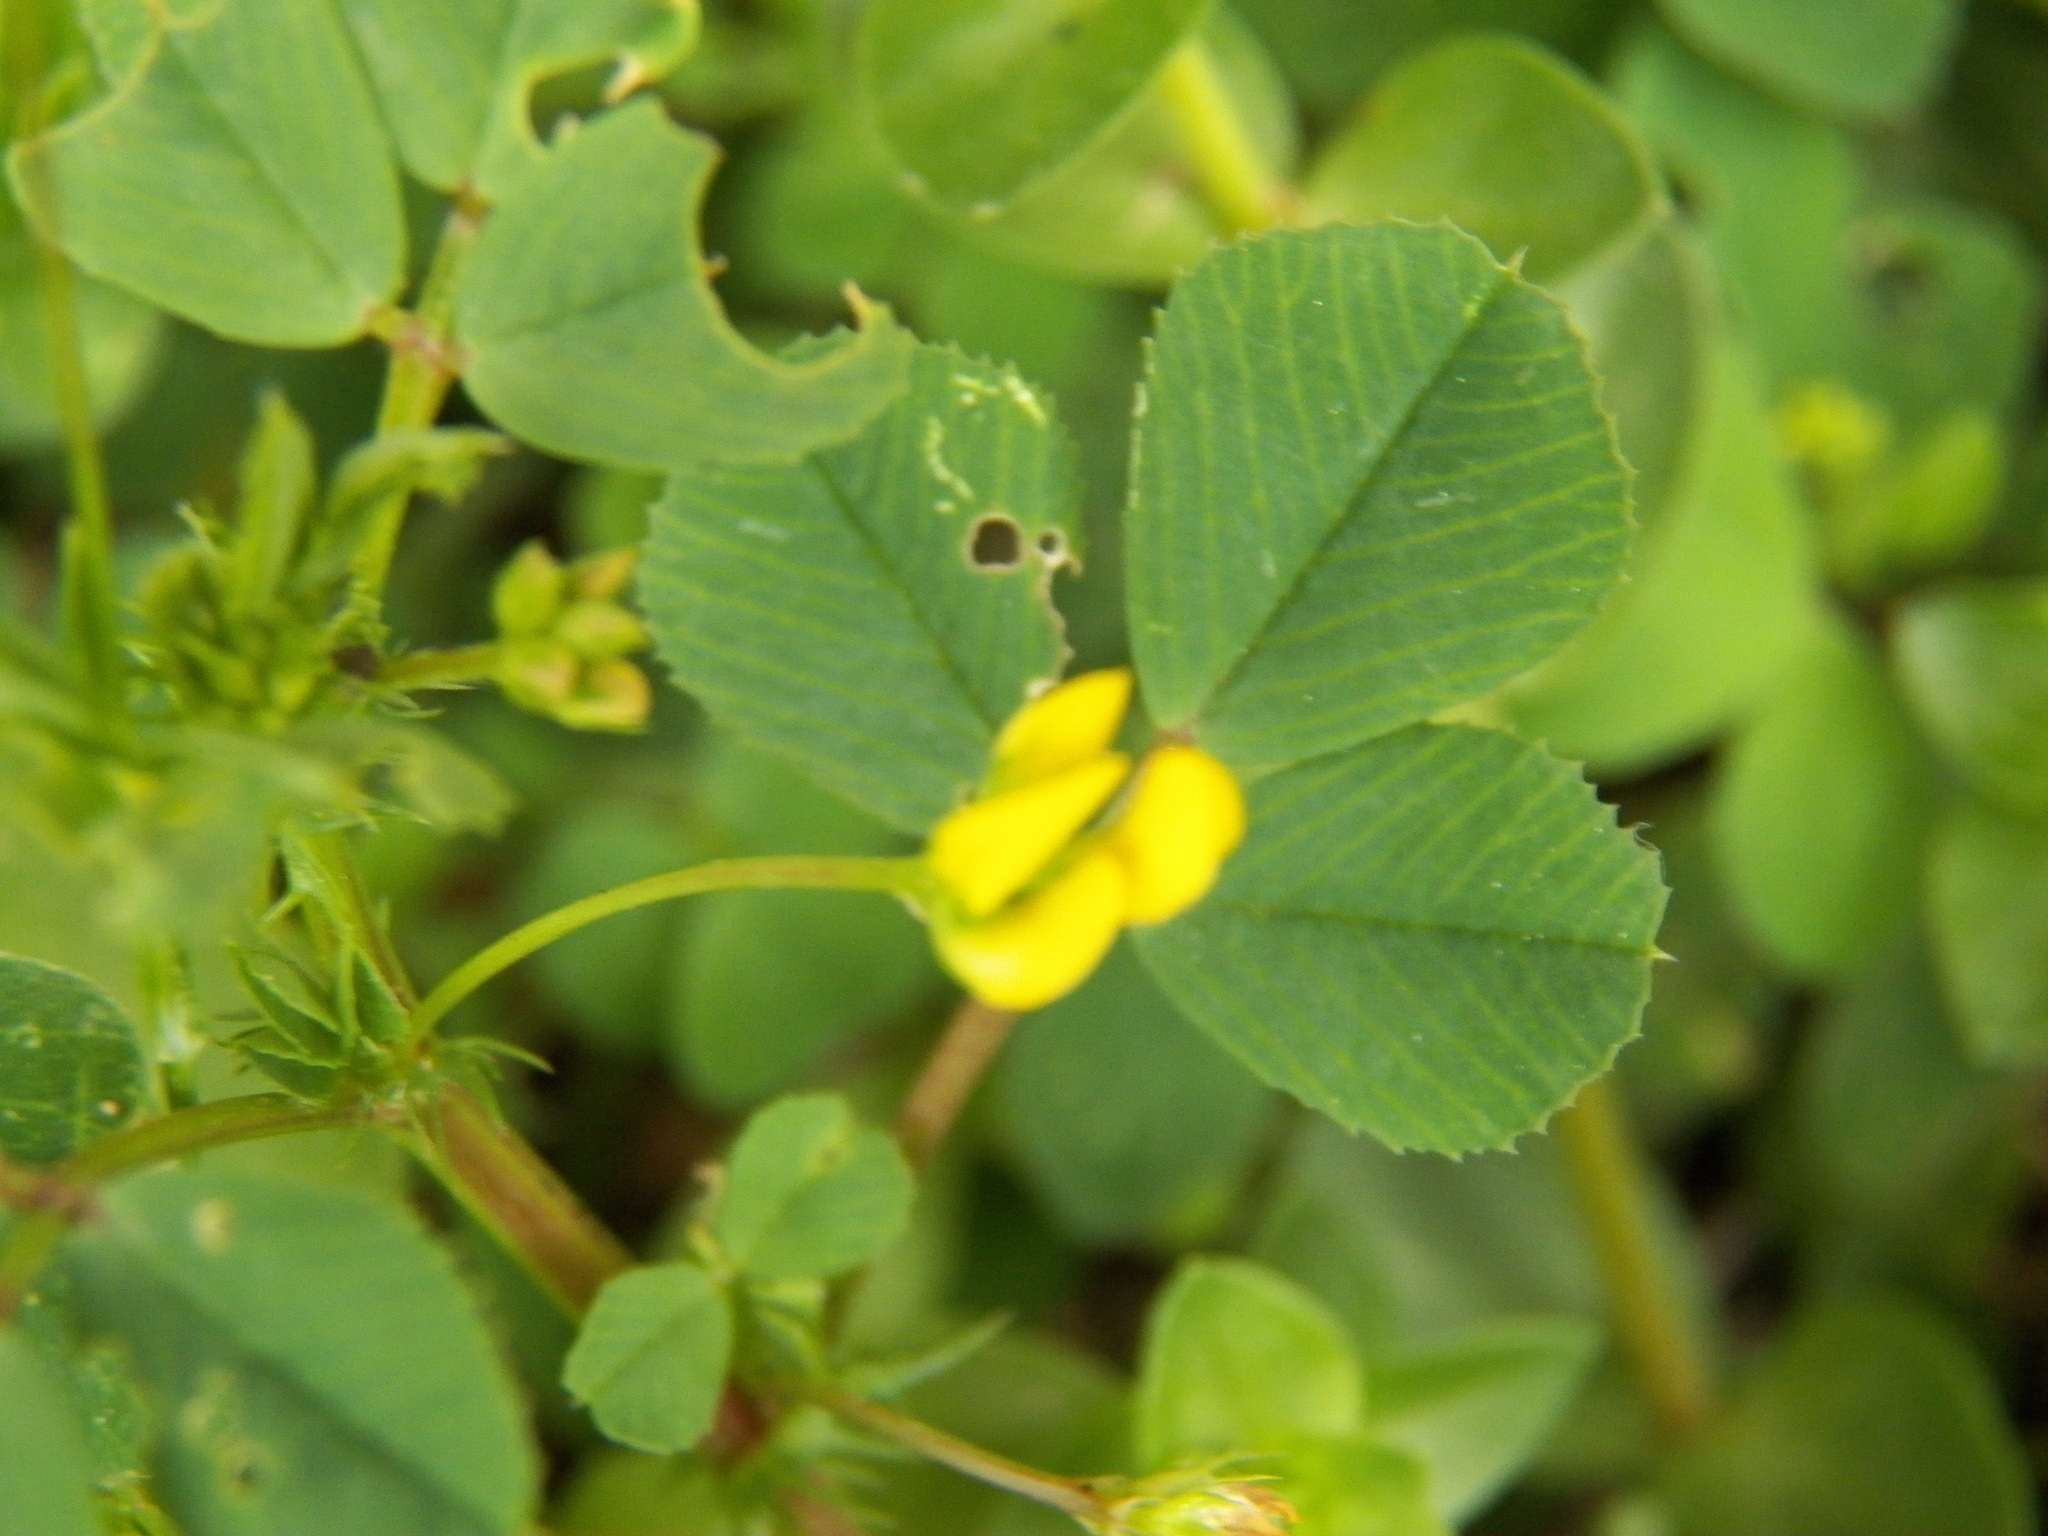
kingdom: Plantae
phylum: Tracheophyta
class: Magnoliopsida
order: Fabales
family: Fabaceae
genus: Medicago
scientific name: Medicago polymorpha
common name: Burclover
